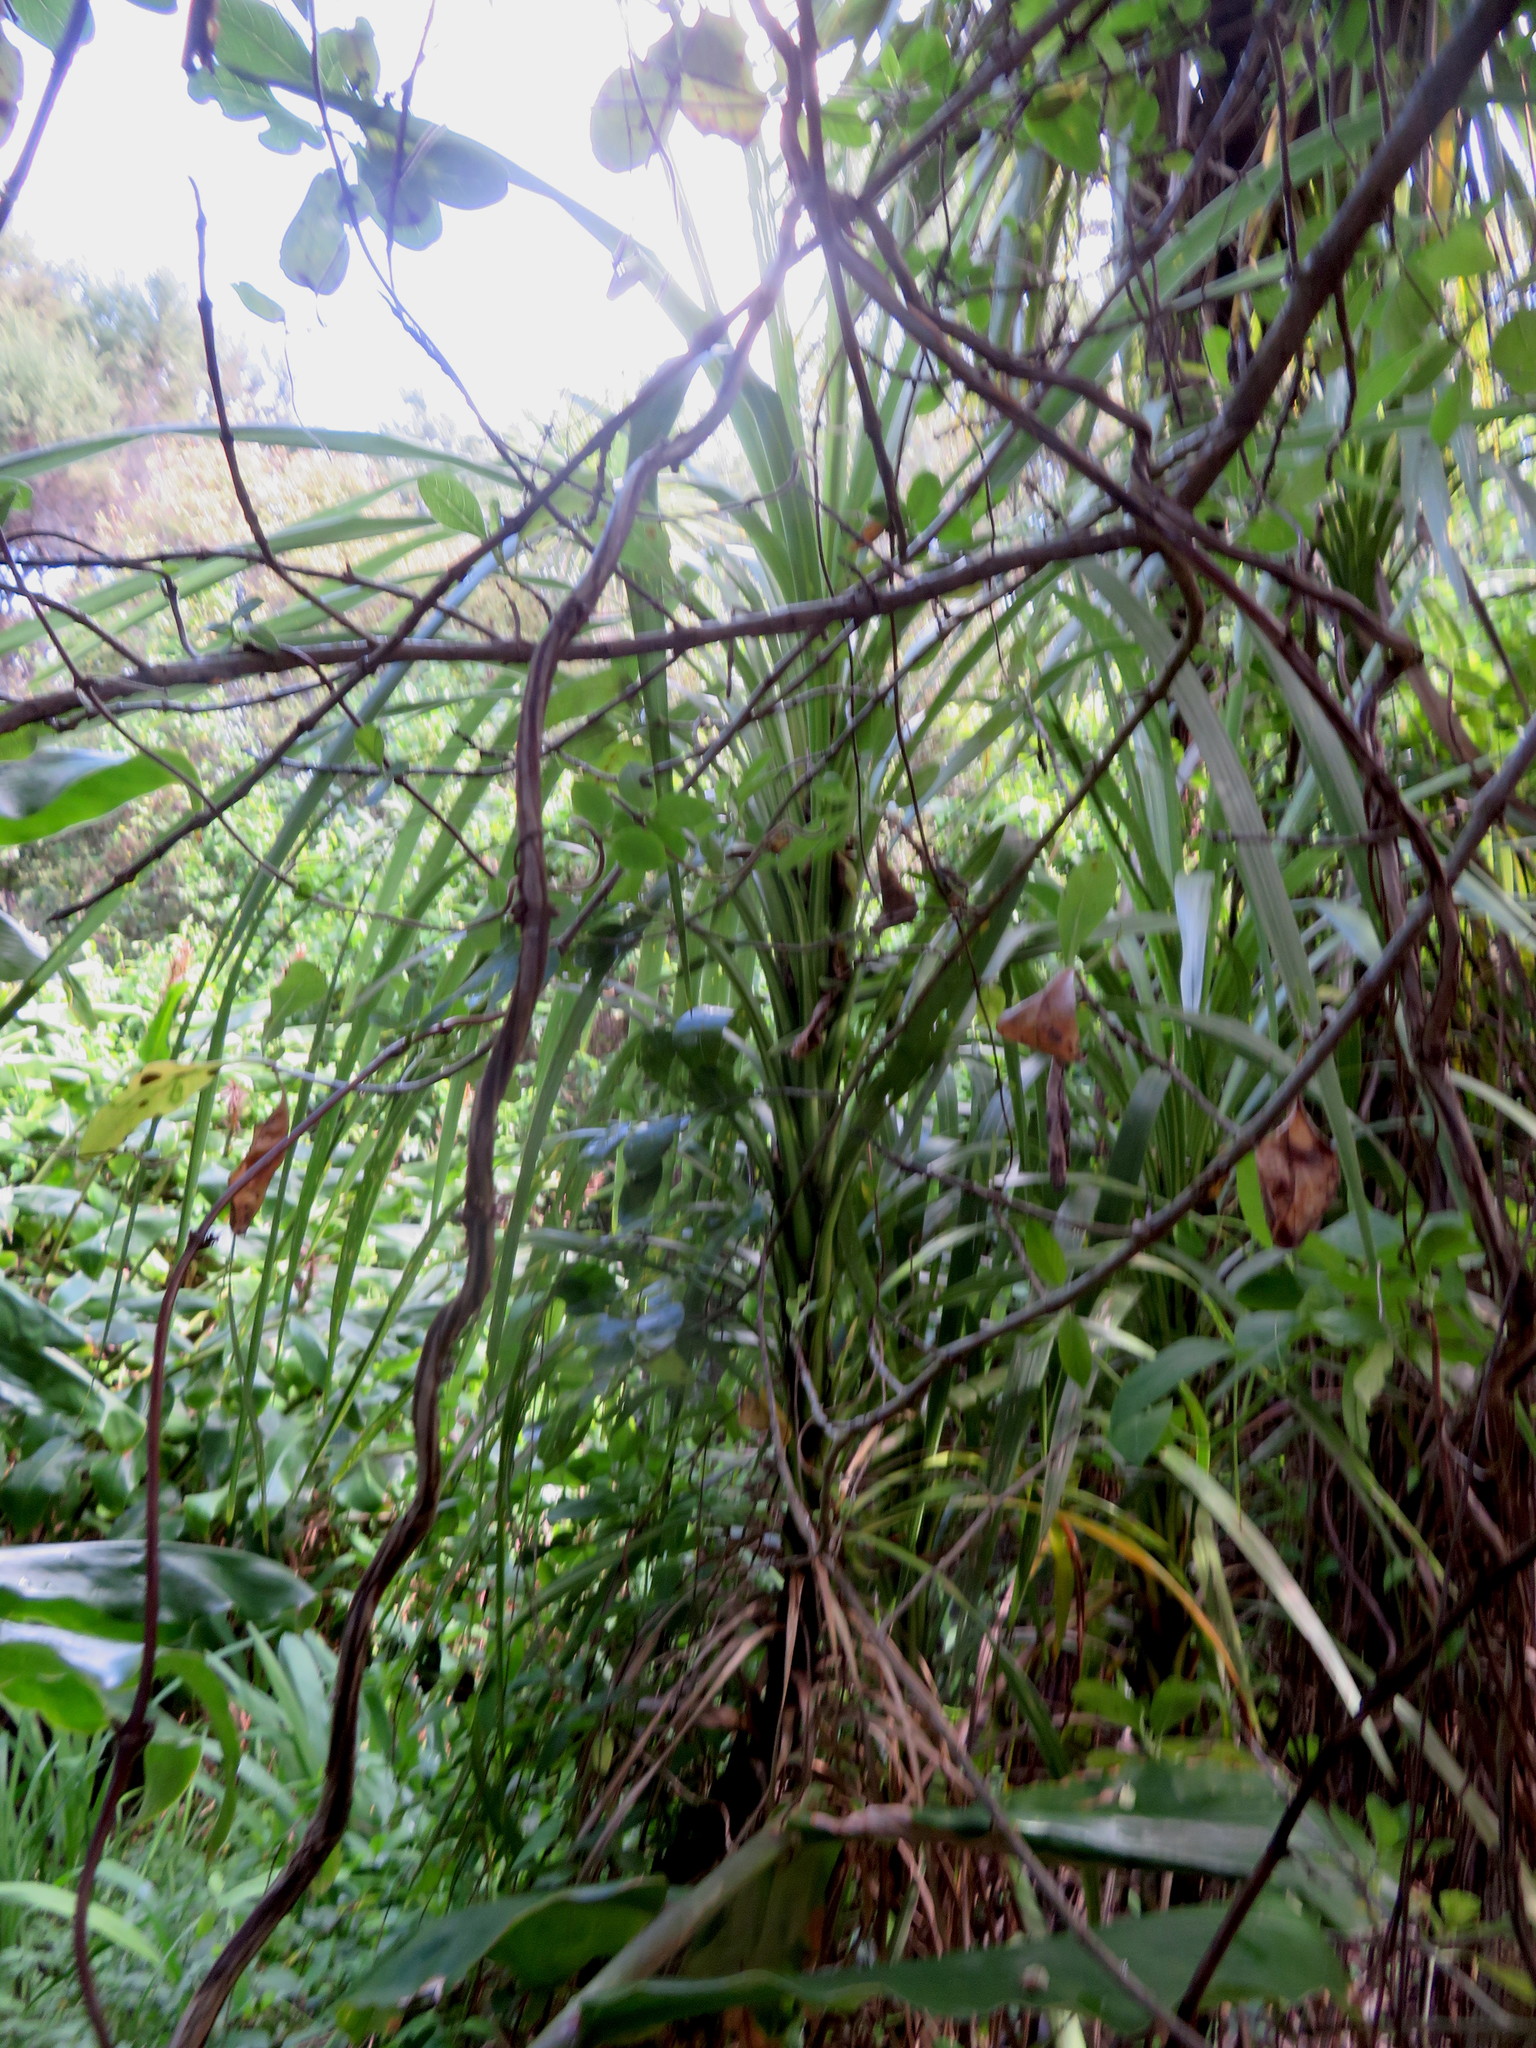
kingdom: Plantae
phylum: Tracheophyta
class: Liliopsida
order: Asparagales
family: Asparagaceae
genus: Cordyline
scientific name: Cordyline australis
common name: Cabbage-palm
